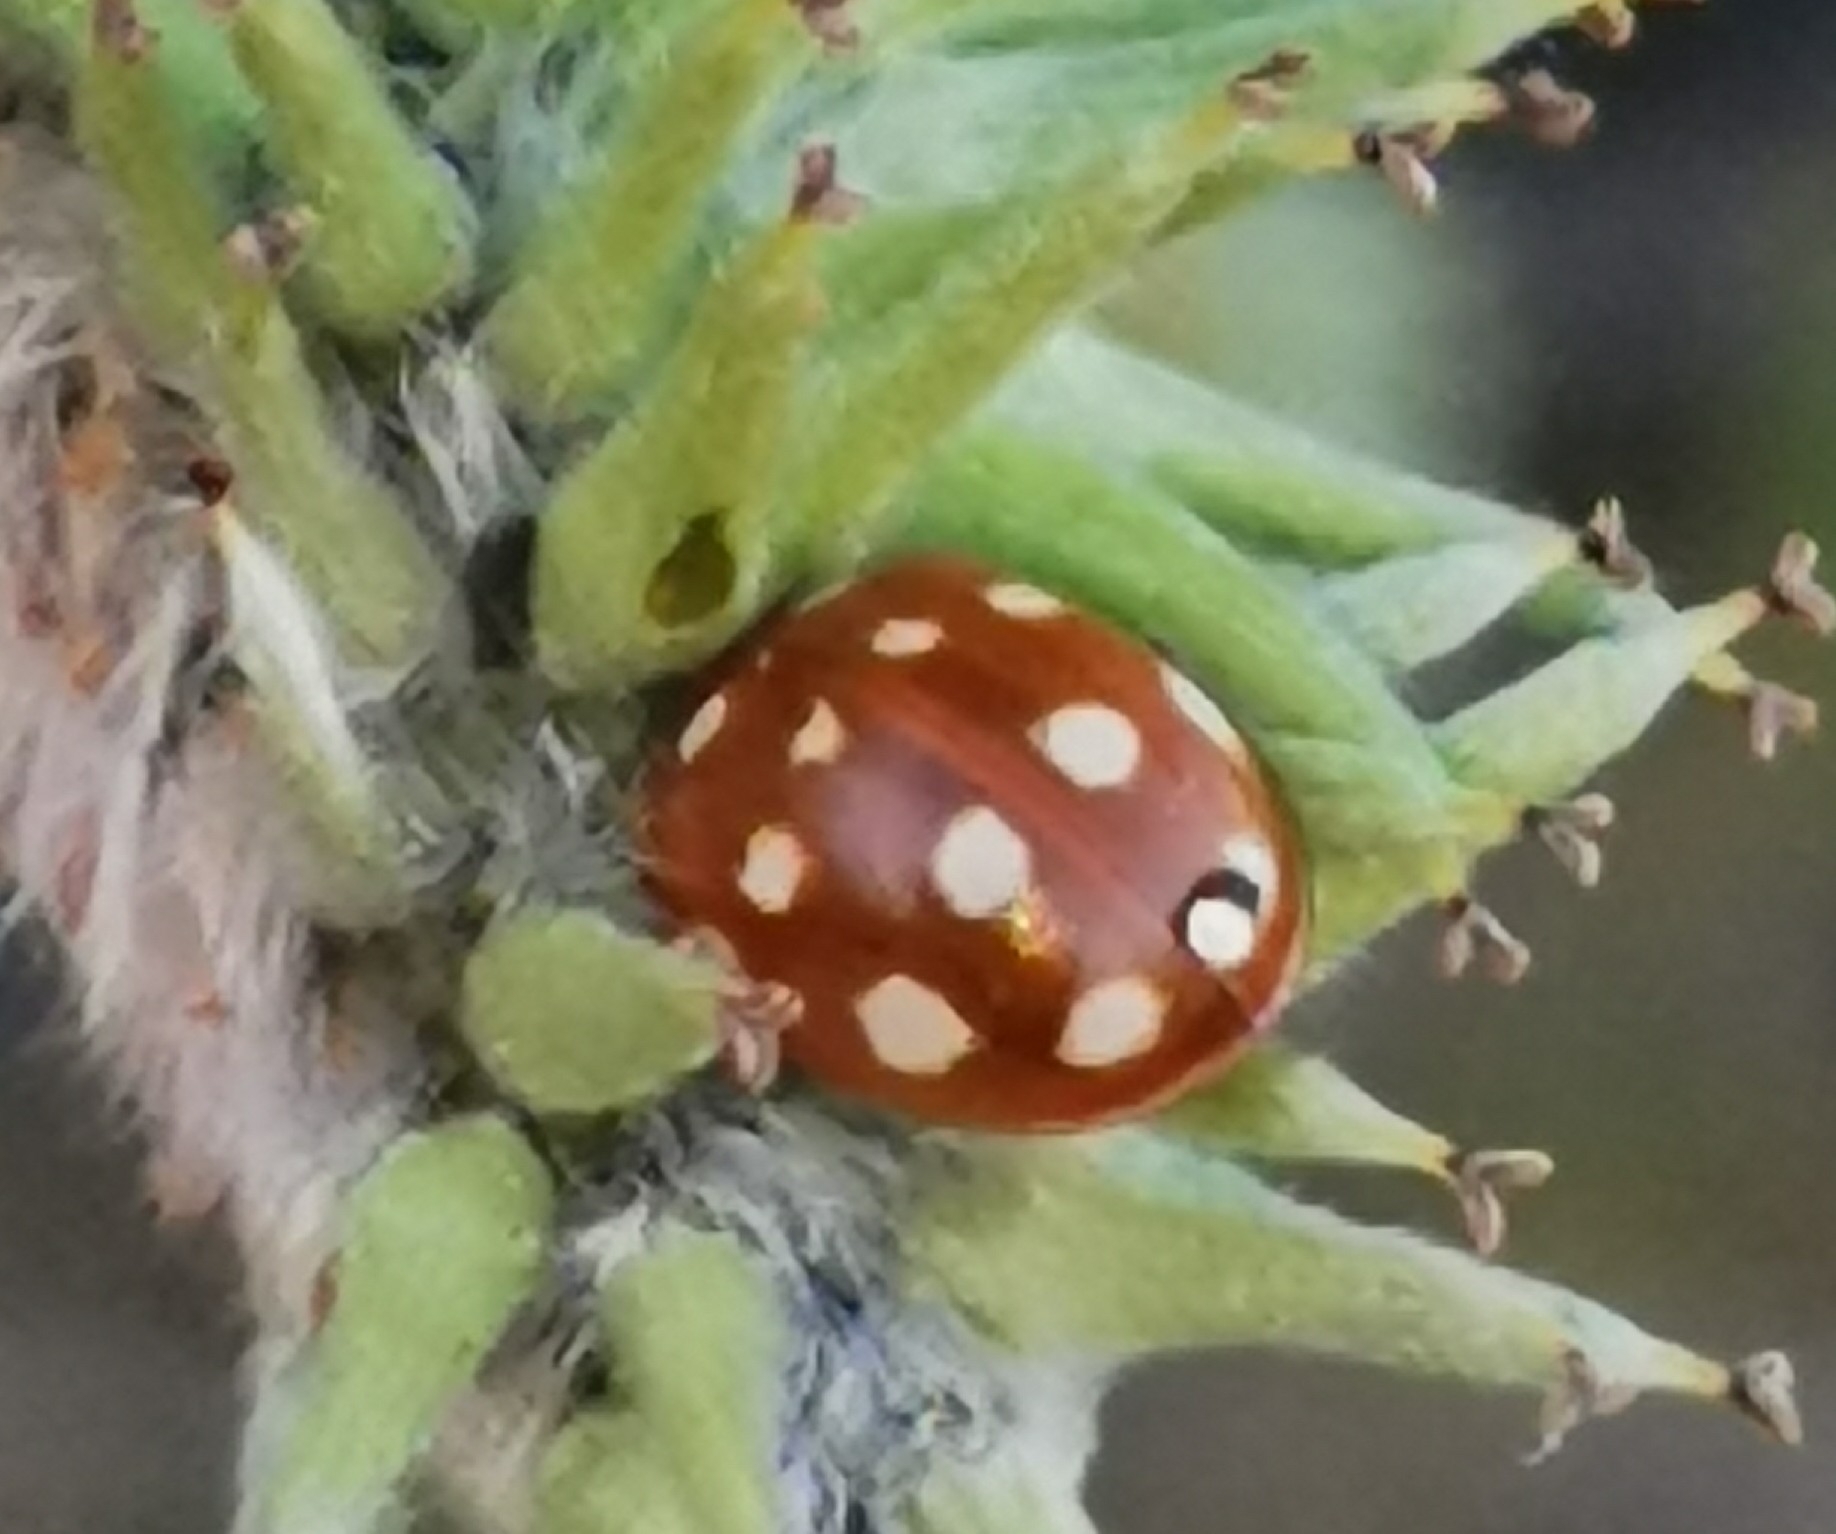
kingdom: Animalia
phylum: Arthropoda
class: Insecta
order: Coleoptera
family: Coccinellidae
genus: Calvia
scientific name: Calvia quatuordecimguttata
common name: Cream-spot ladybird
